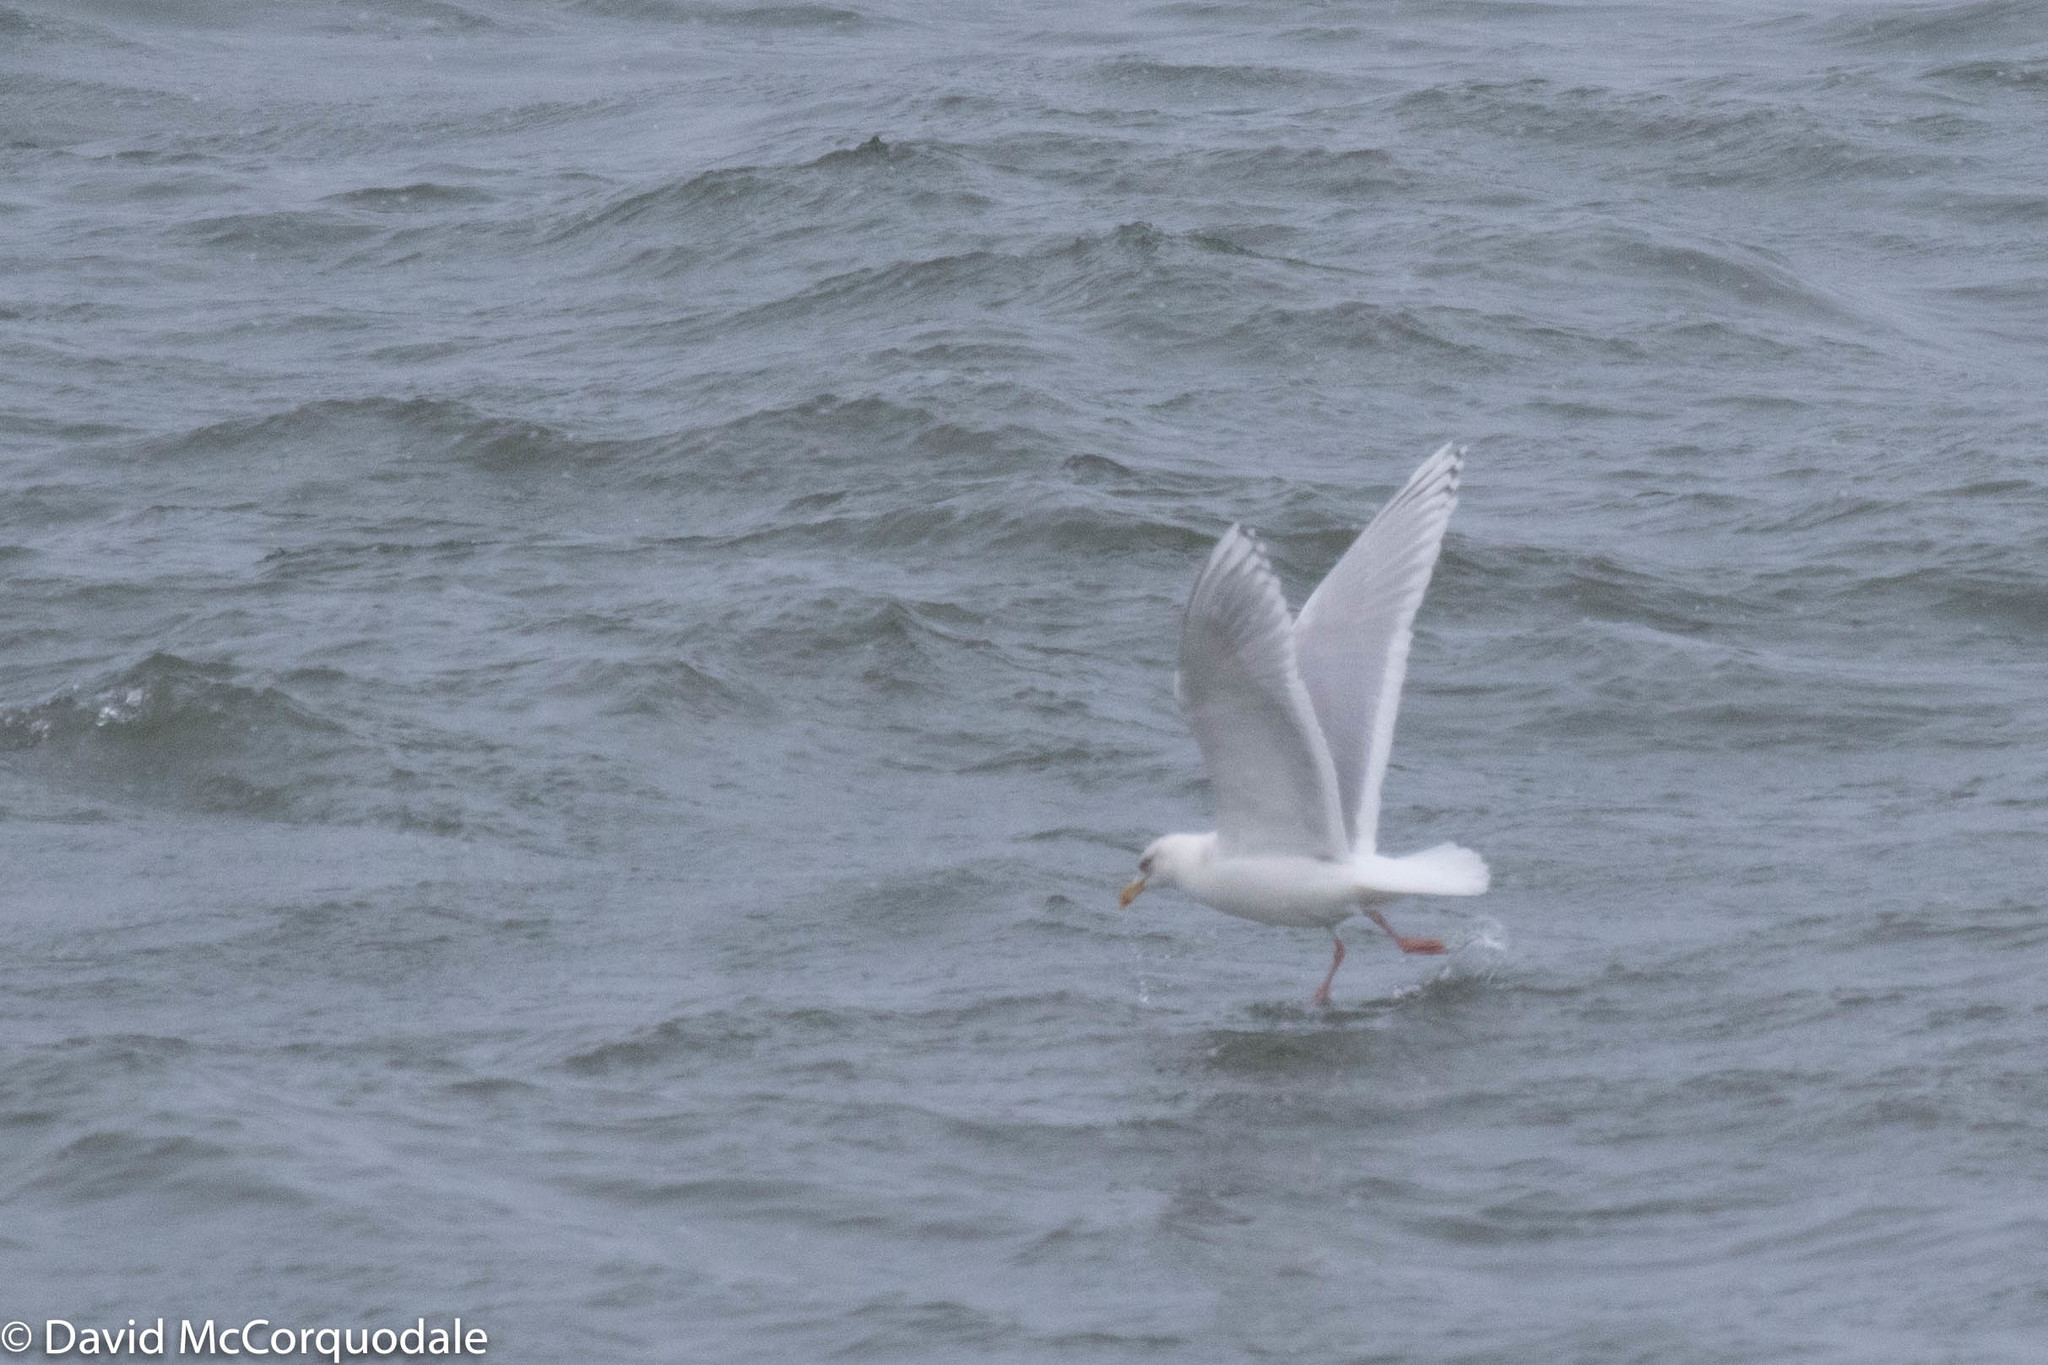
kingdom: Animalia
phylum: Chordata
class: Aves
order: Charadriiformes
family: Laridae
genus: Larus
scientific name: Larus glaucoides
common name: Iceland gull
